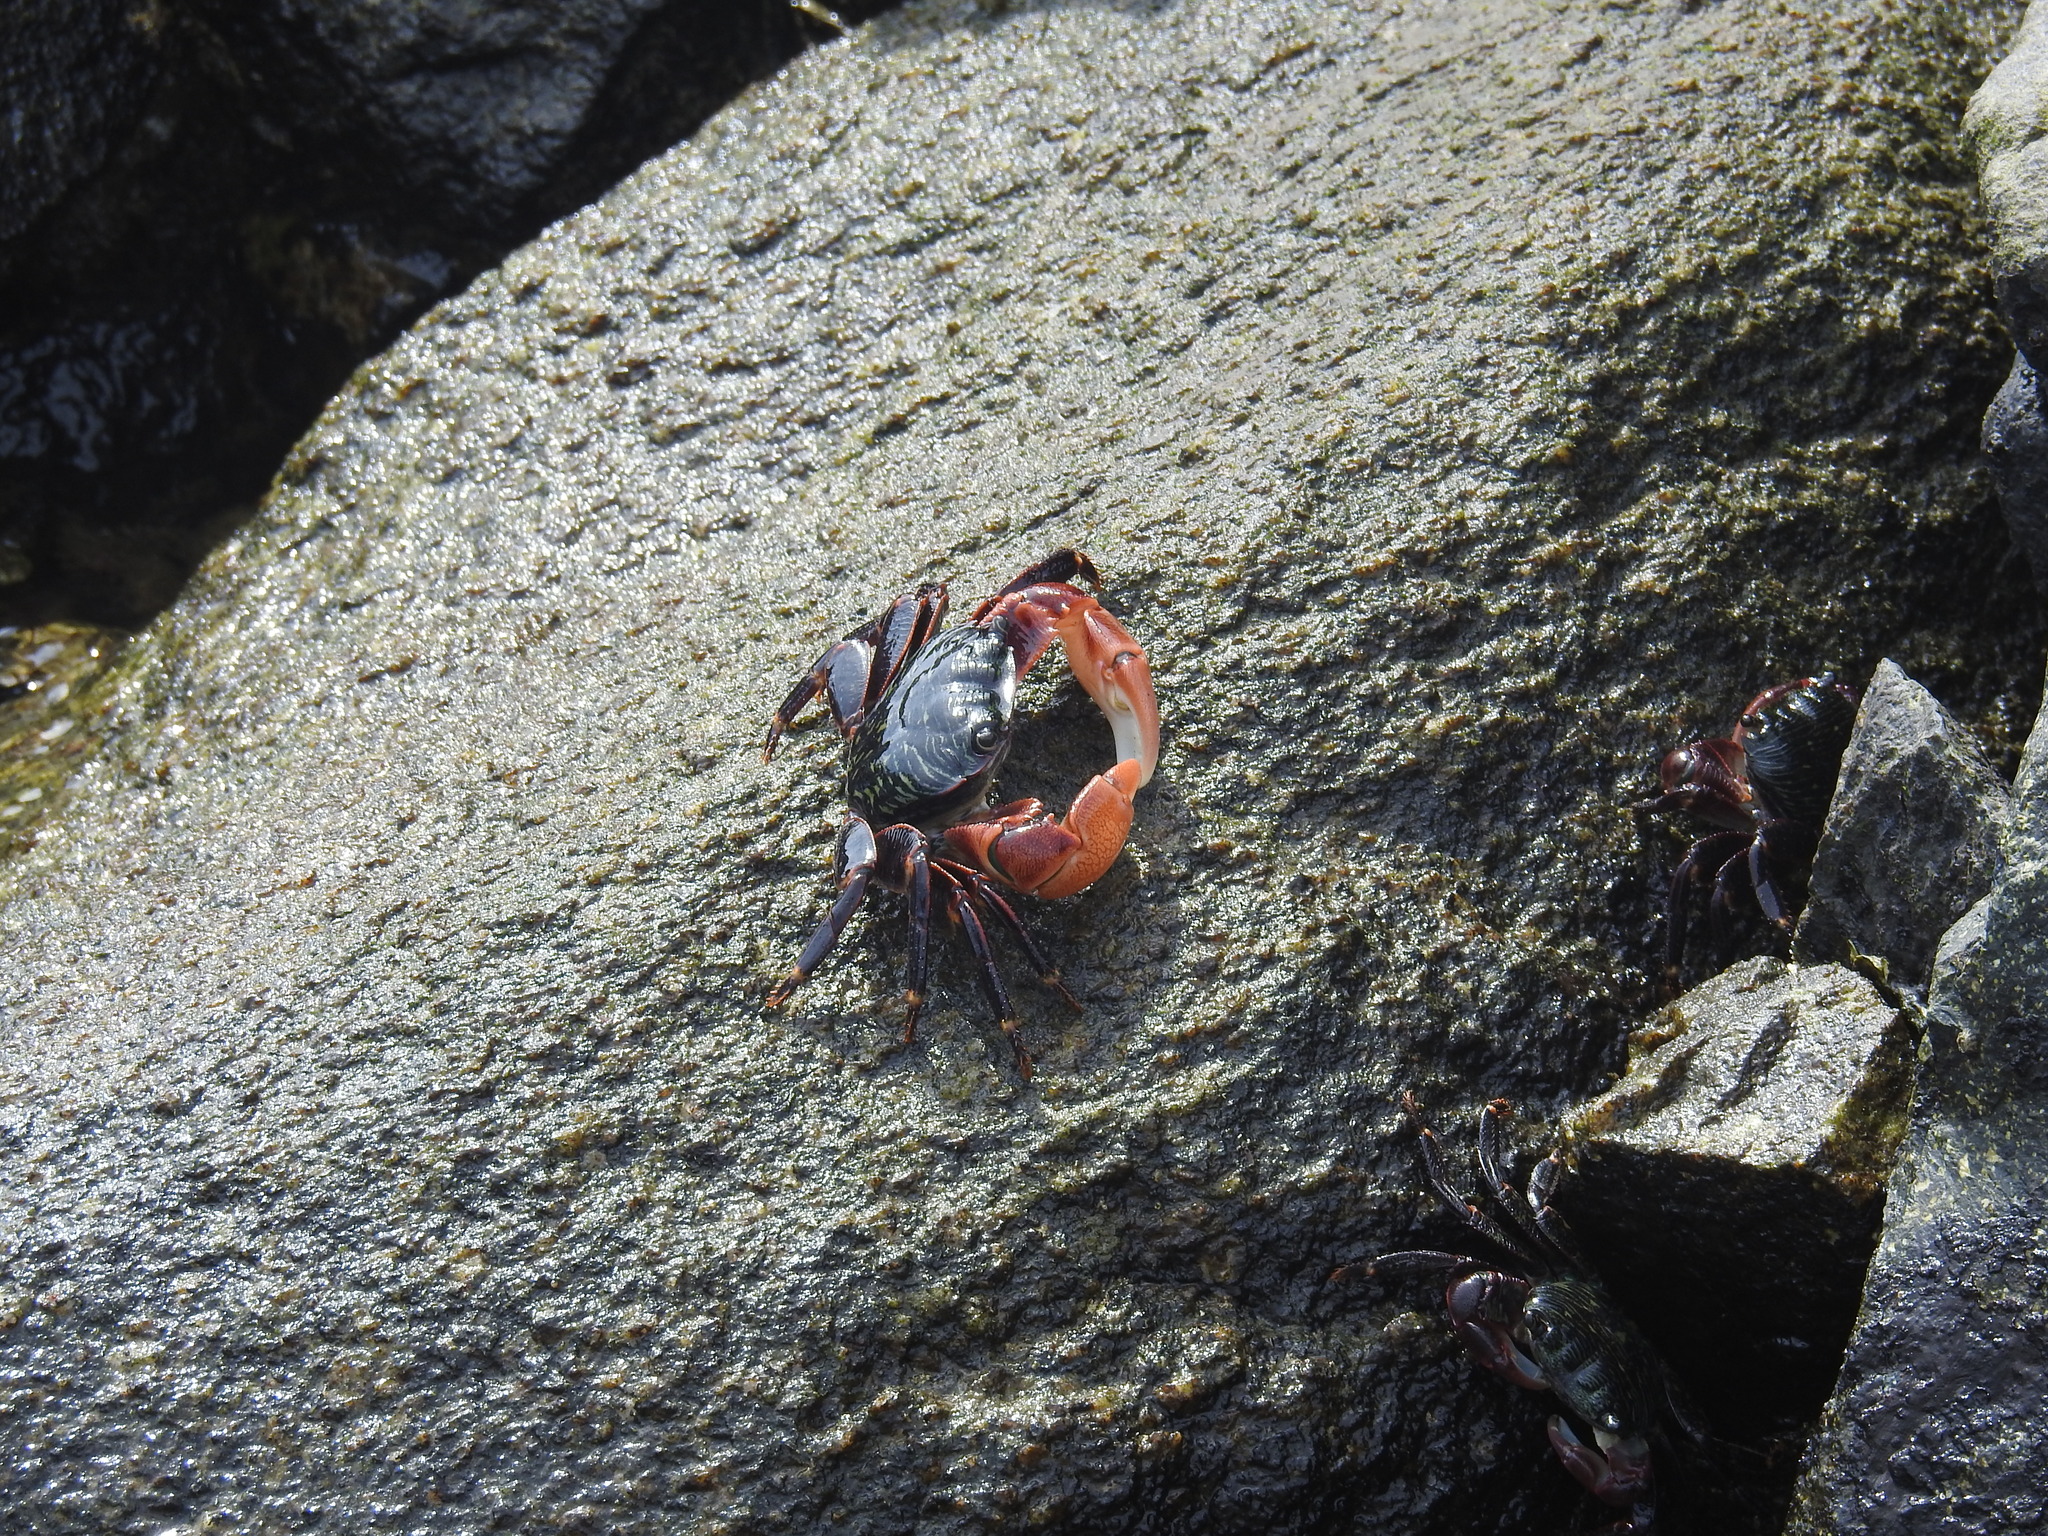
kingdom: Animalia
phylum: Arthropoda
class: Malacostraca
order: Decapoda
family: Grapsidae
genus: Pachygrapsus
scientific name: Pachygrapsus crassipes
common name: Striped shore crab
